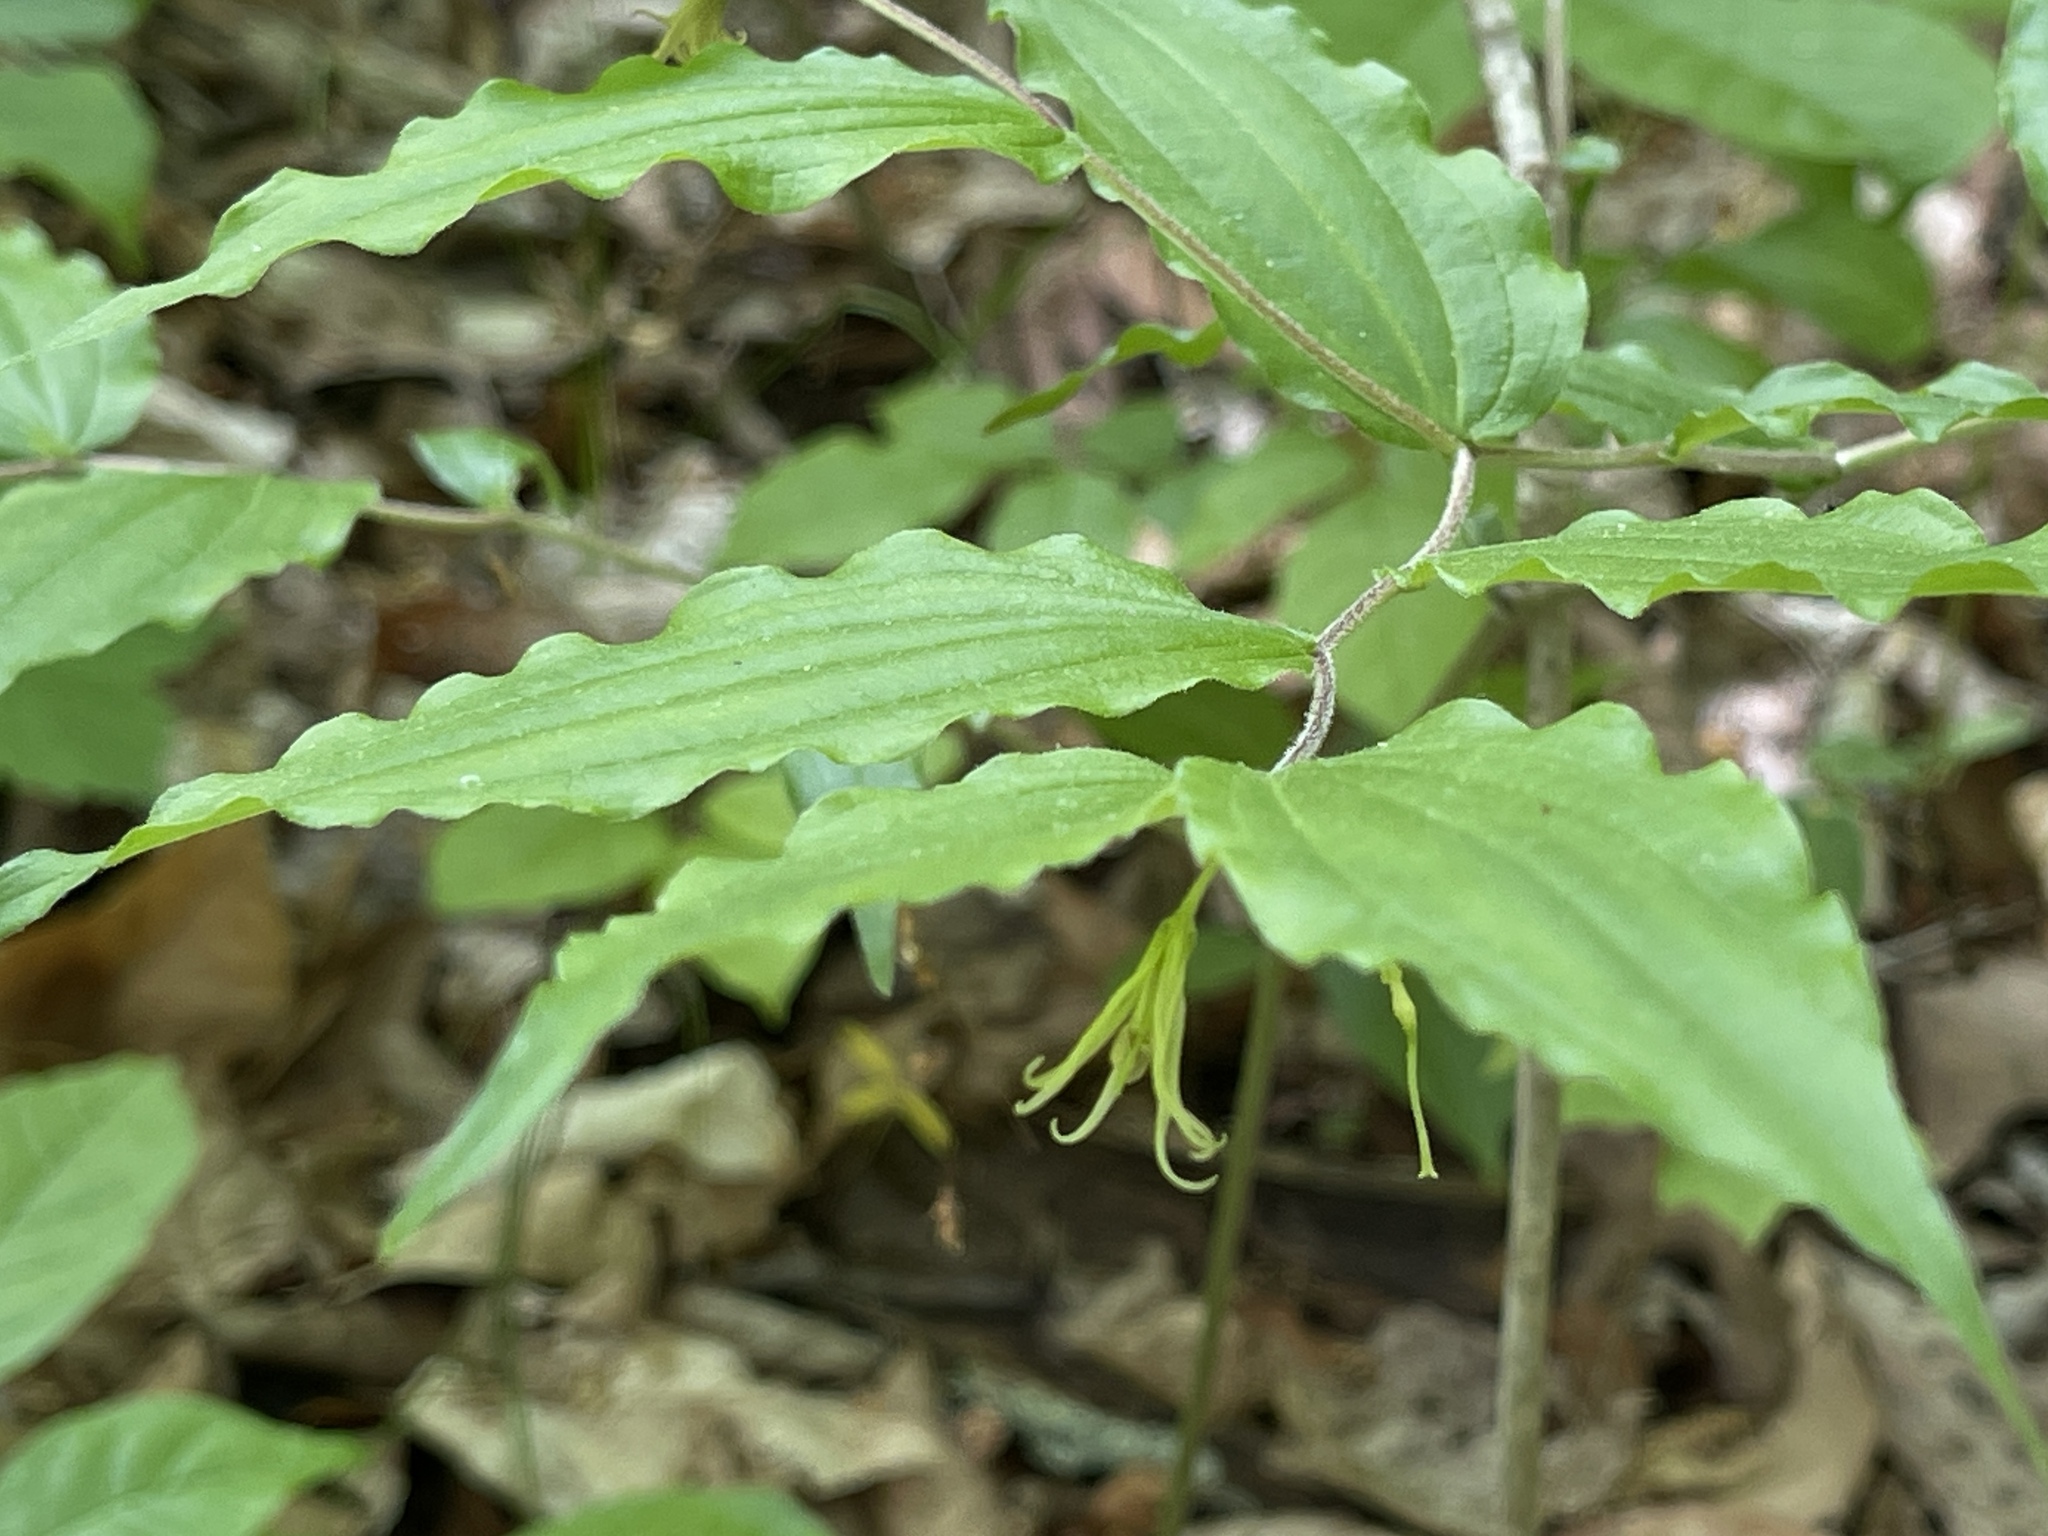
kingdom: Plantae
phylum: Tracheophyta
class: Liliopsida
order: Liliales
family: Liliaceae
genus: Prosartes
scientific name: Prosartes lanuginosa
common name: Hairy mandarin
